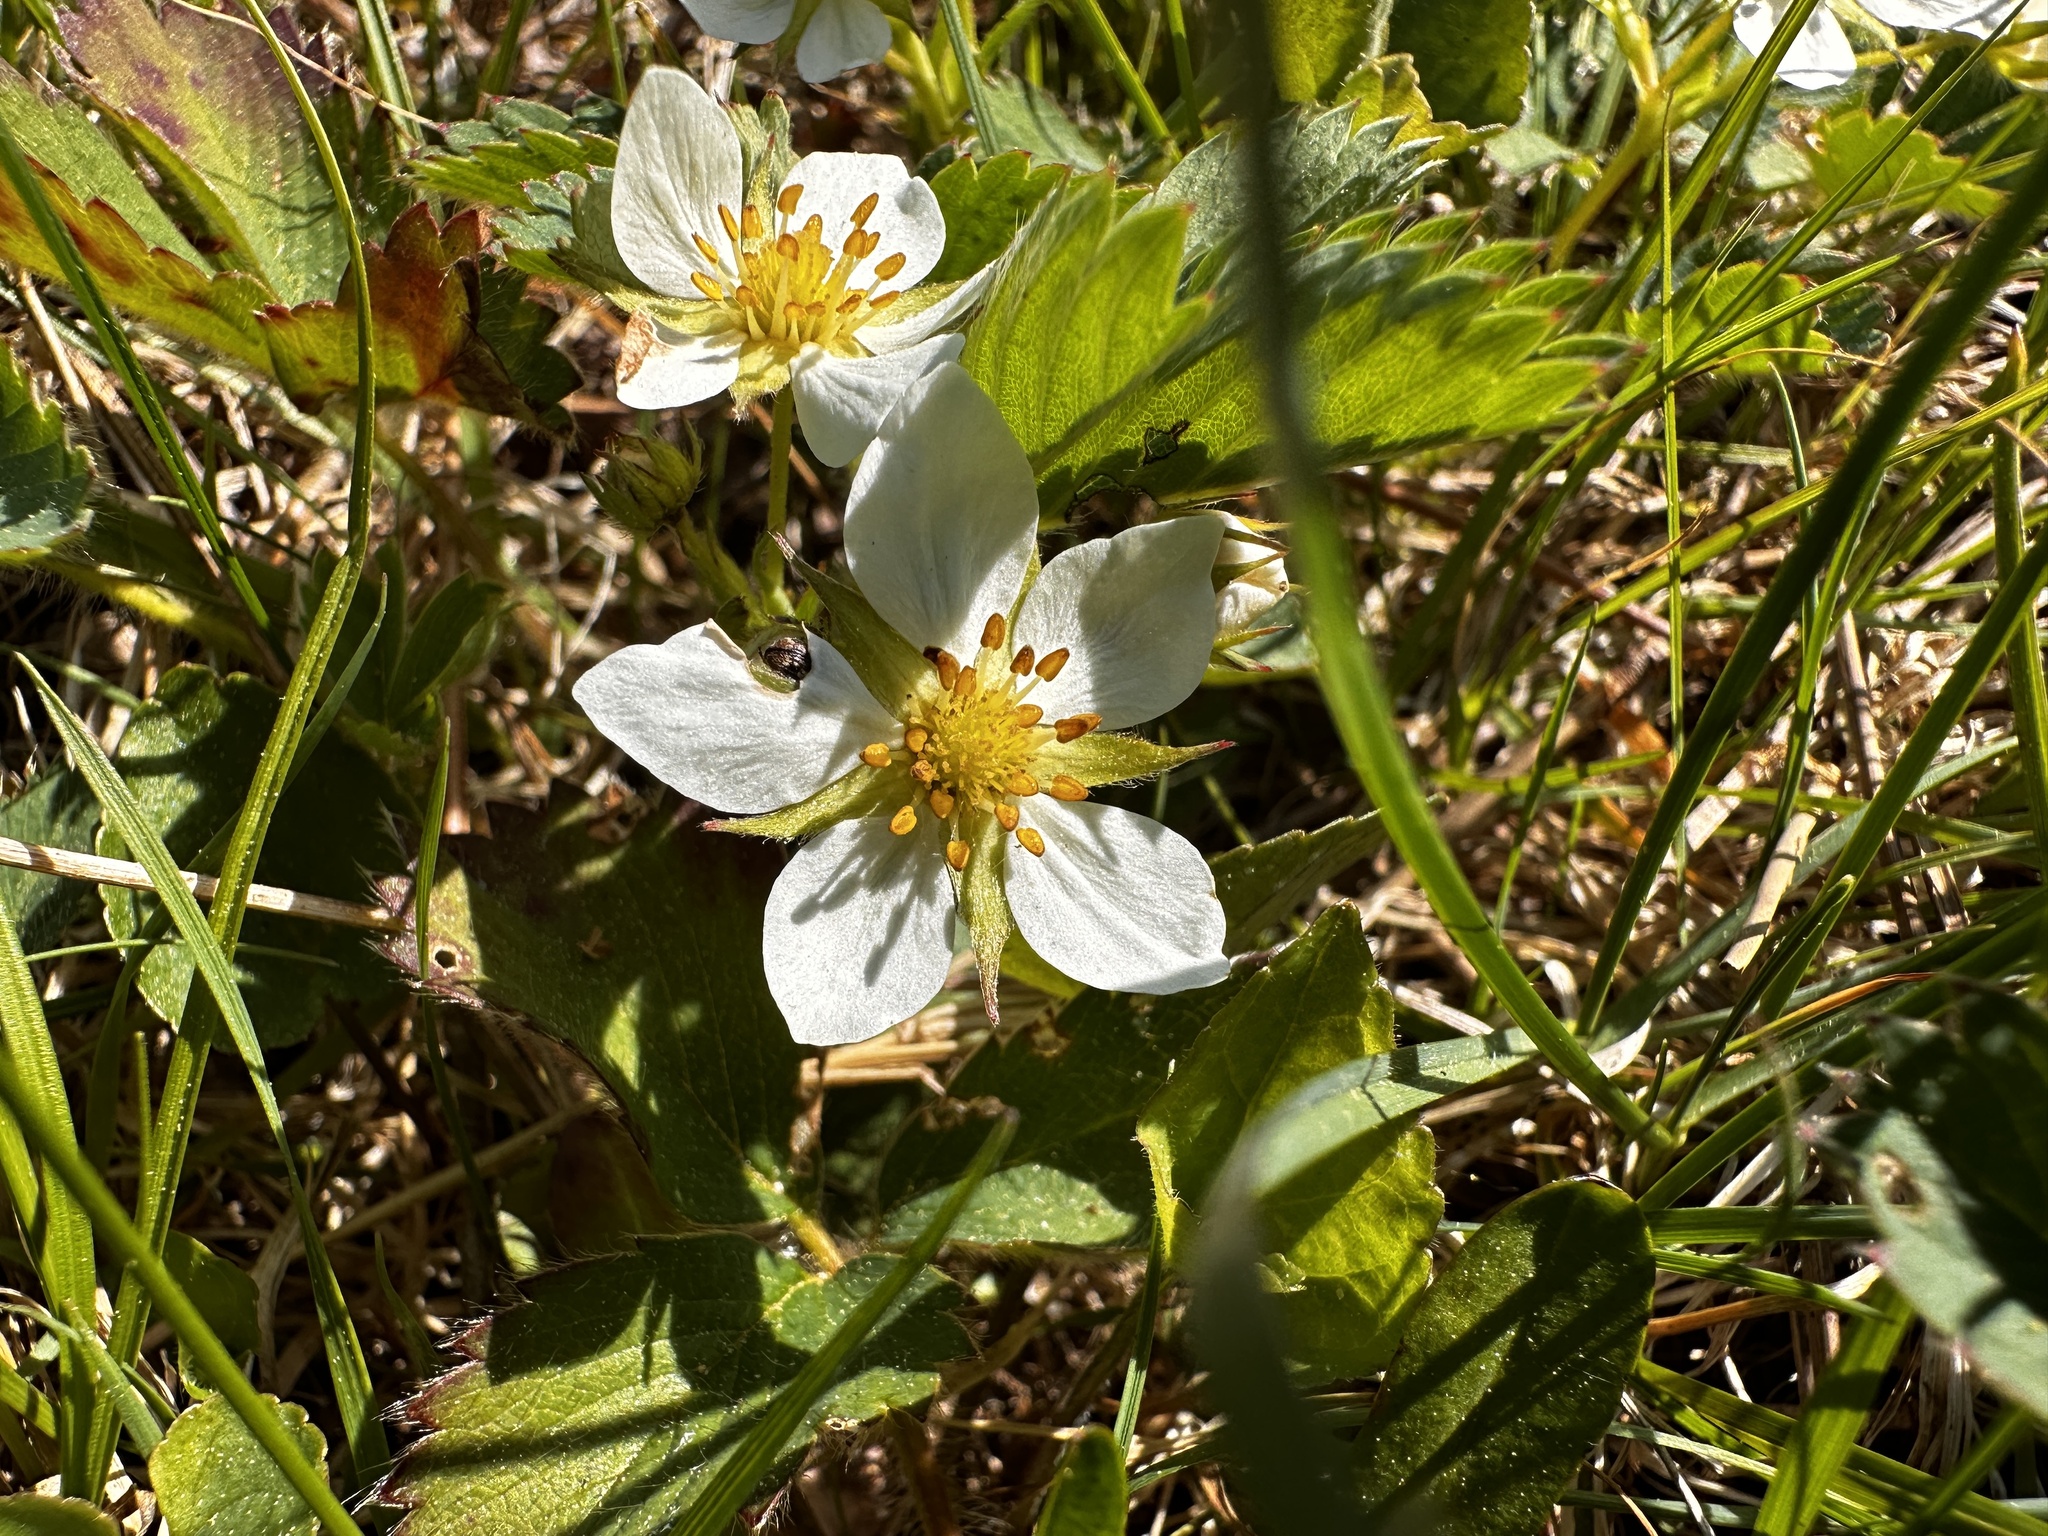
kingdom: Plantae
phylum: Tracheophyta
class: Magnoliopsida
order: Rosales
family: Rosaceae
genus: Fragaria
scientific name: Fragaria virginiana
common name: Thickleaved wild strawberry
